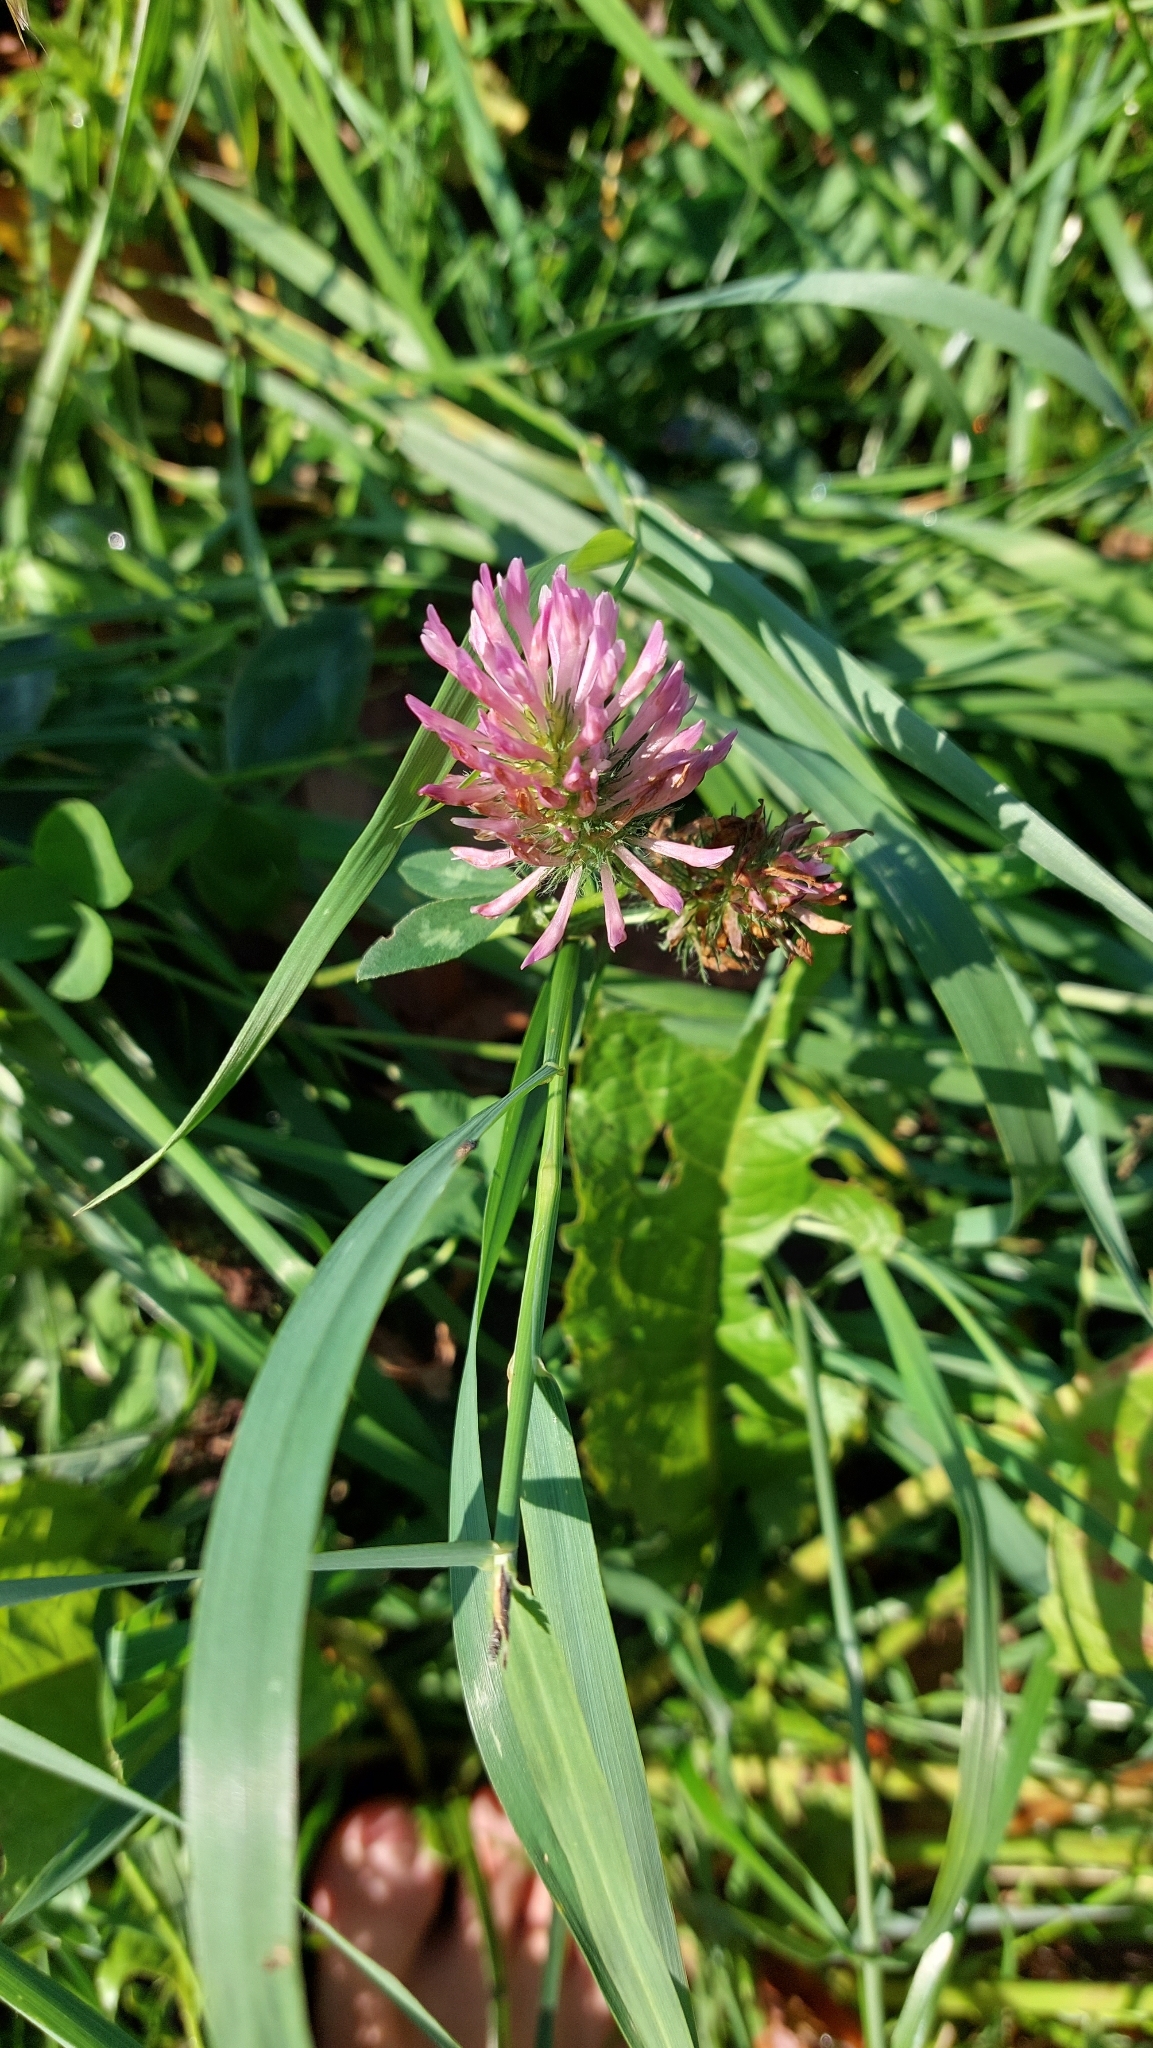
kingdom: Plantae
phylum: Tracheophyta
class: Magnoliopsida
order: Fabales
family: Fabaceae
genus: Trifolium
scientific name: Trifolium pratense
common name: Red clover
